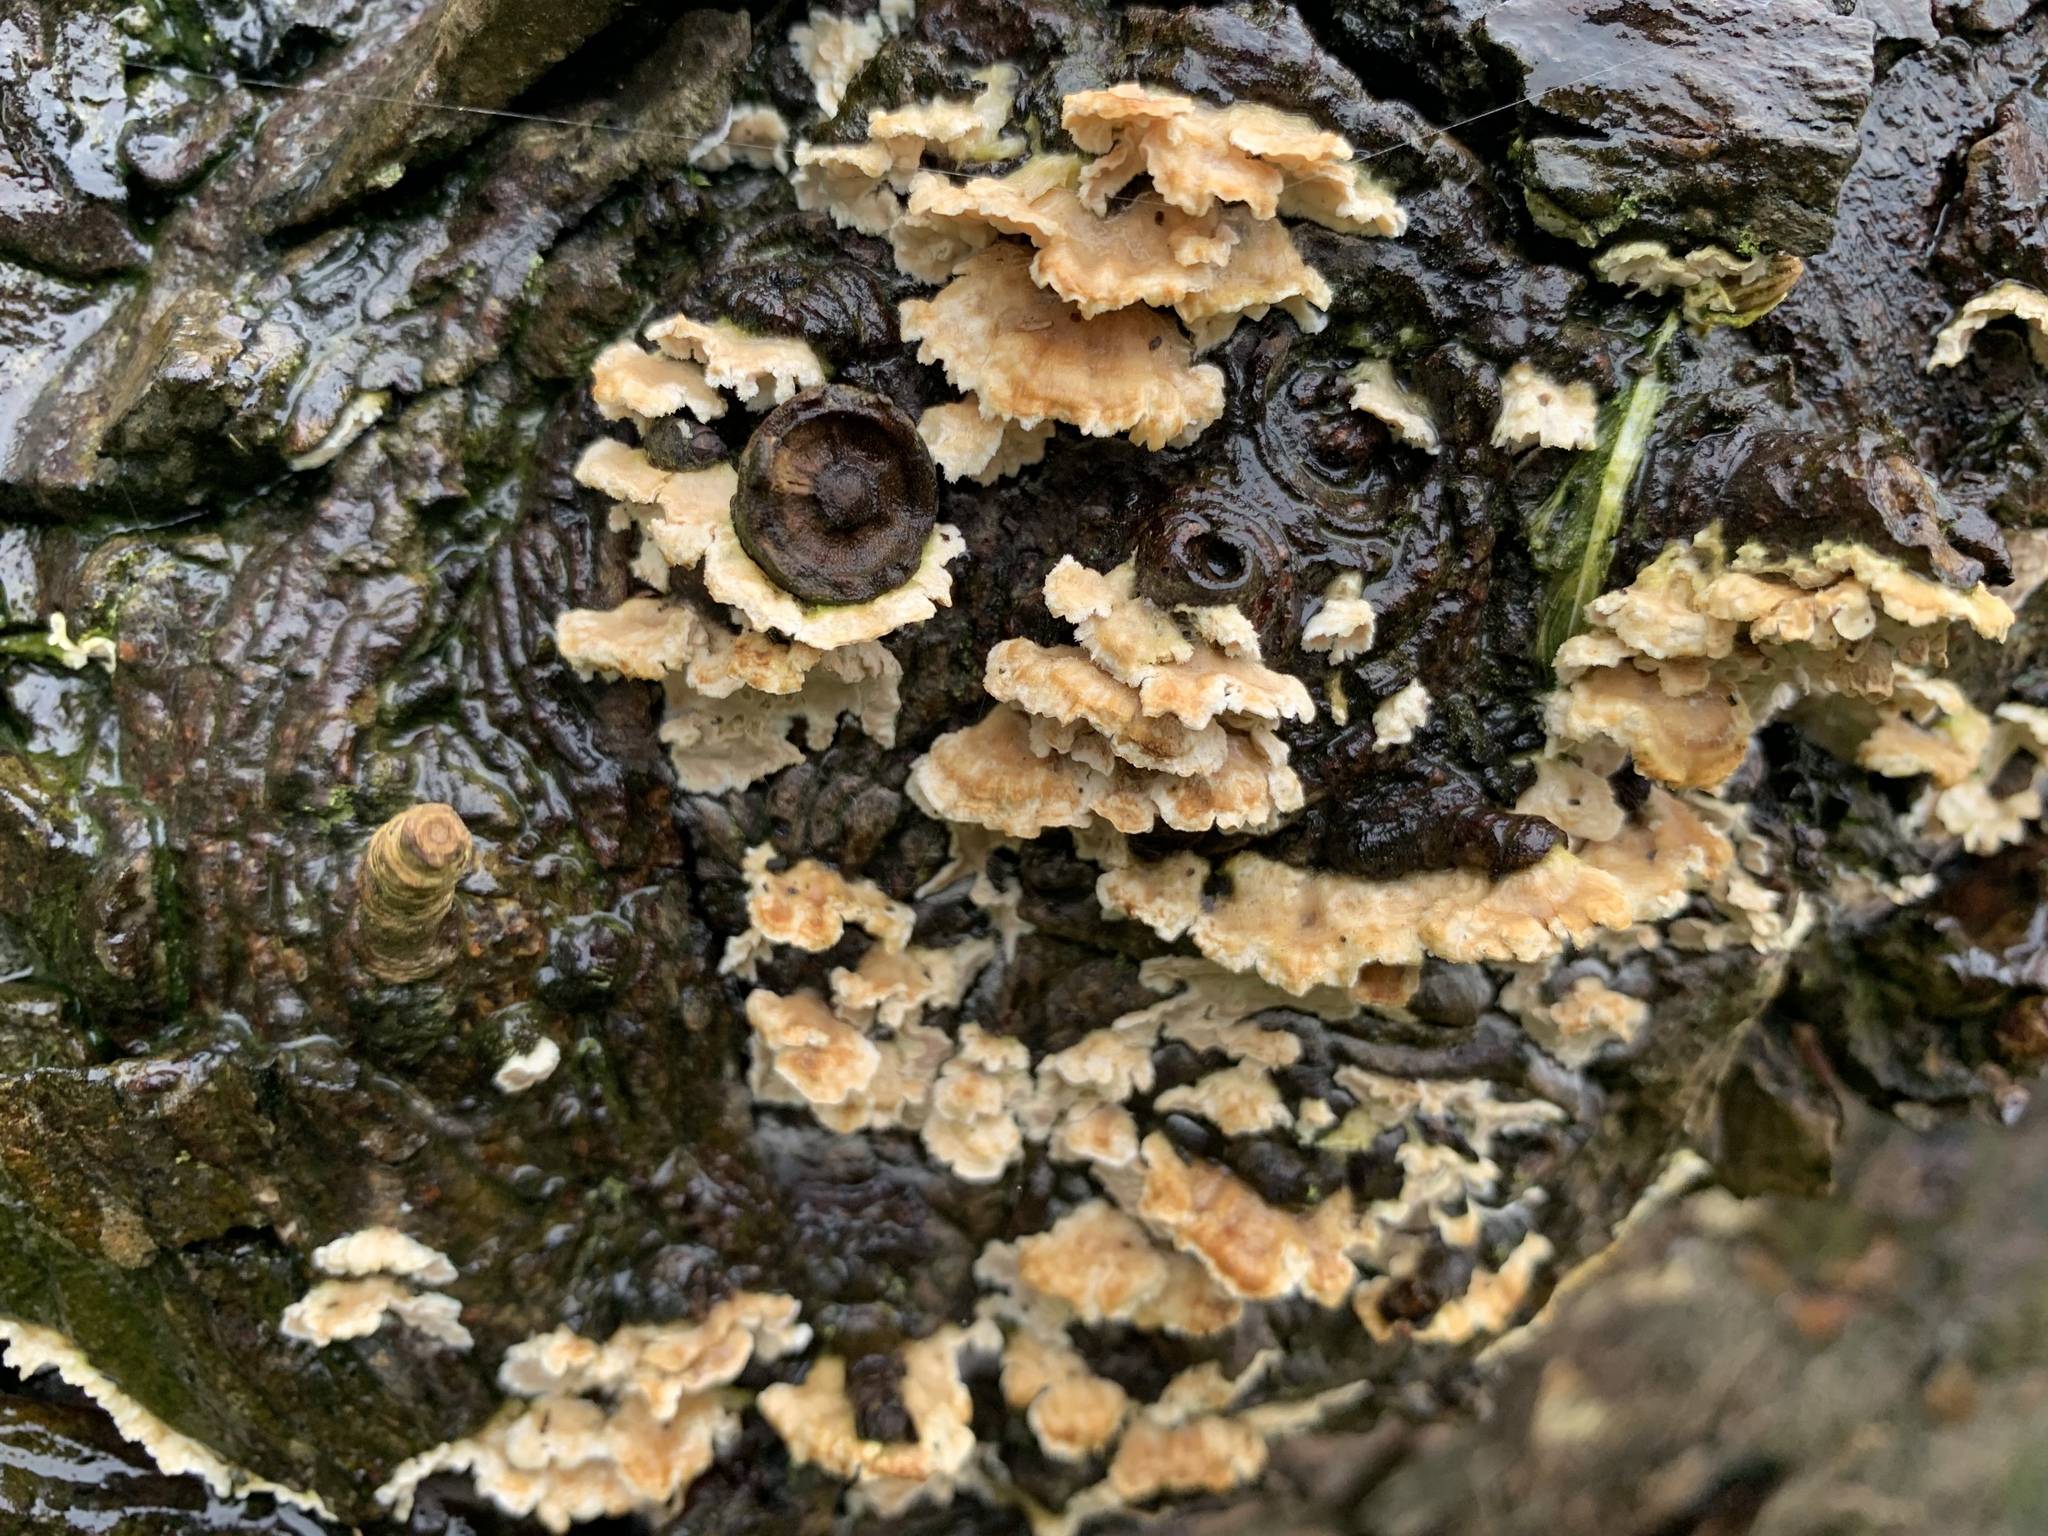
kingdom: Fungi
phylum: Basidiomycota
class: Agaricomycetes
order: Russulales
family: Stereaceae
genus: Stereum
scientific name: Stereum hirsutum
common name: Hairy curtain crust
